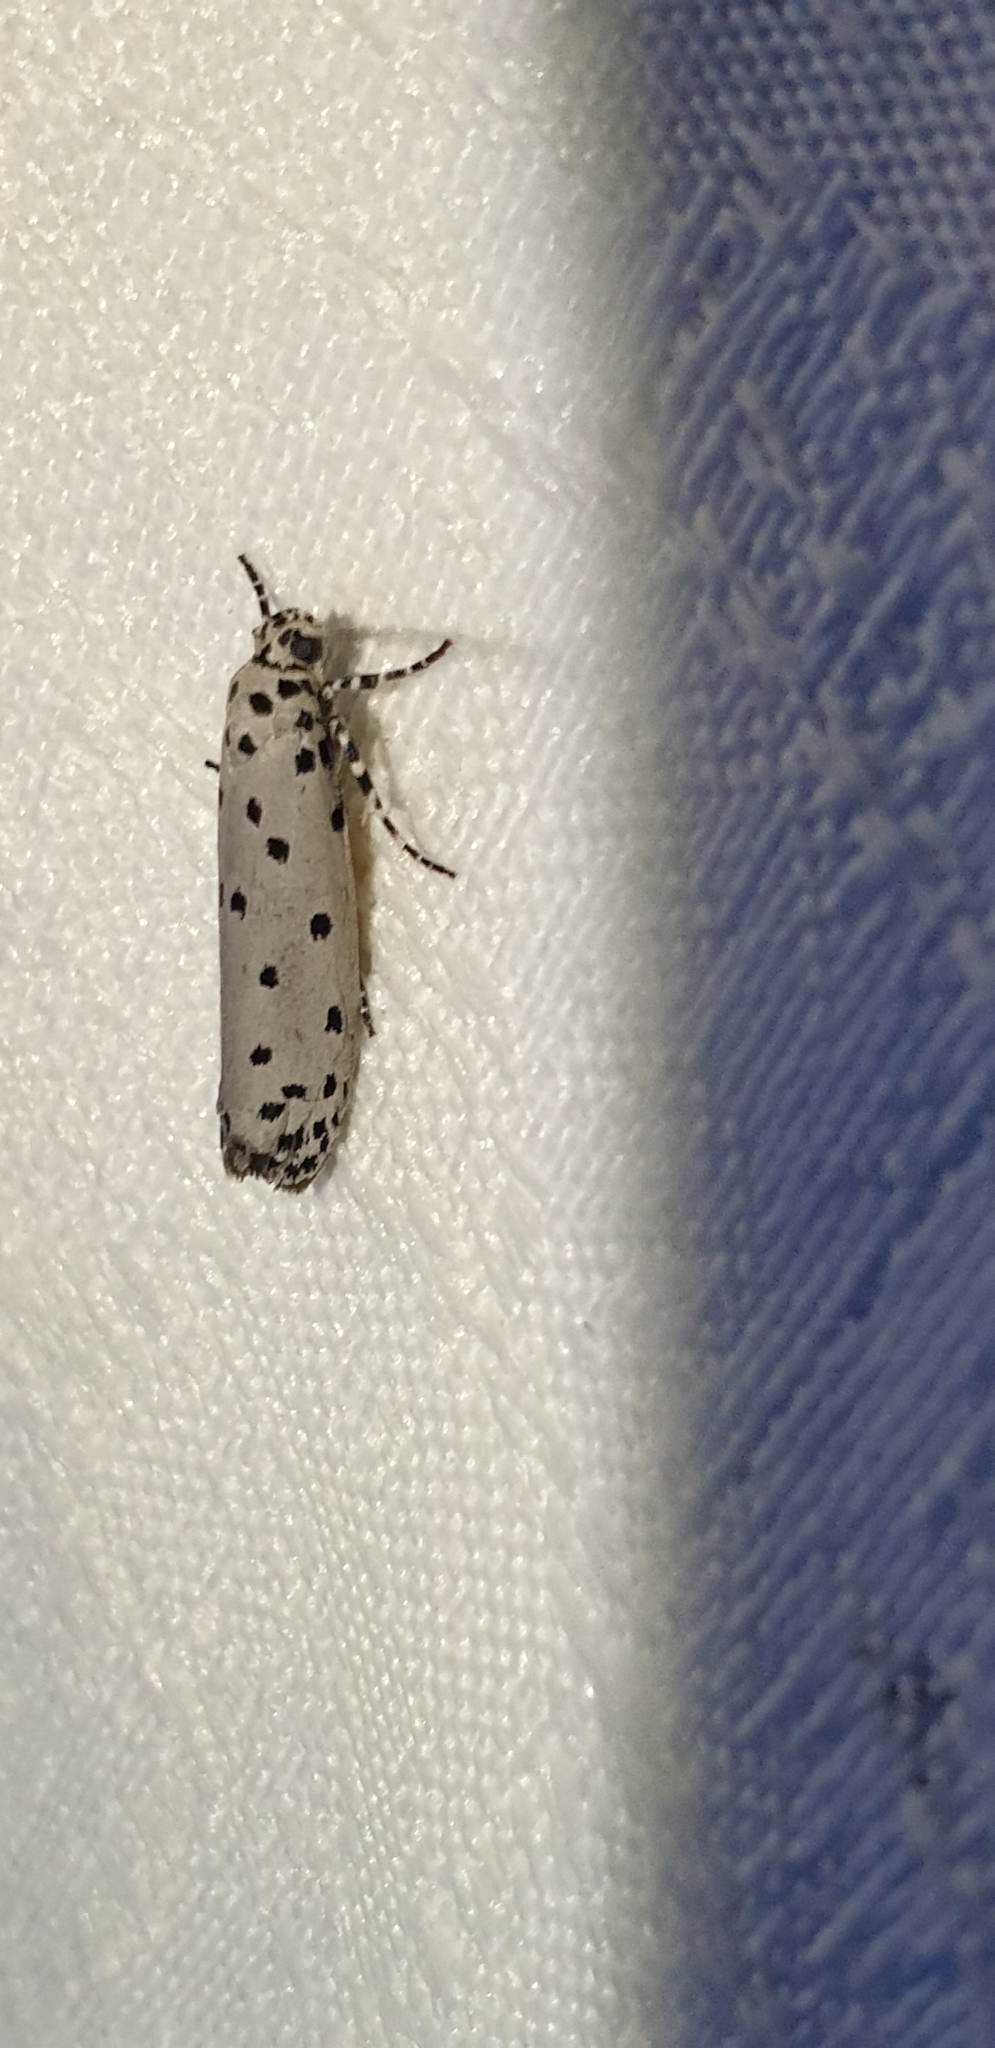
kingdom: Animalia
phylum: Arthropoda
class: Insecta
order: Lepidoptera
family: Ethmiidae
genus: Ethmia
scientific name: Ethmia heptasema
